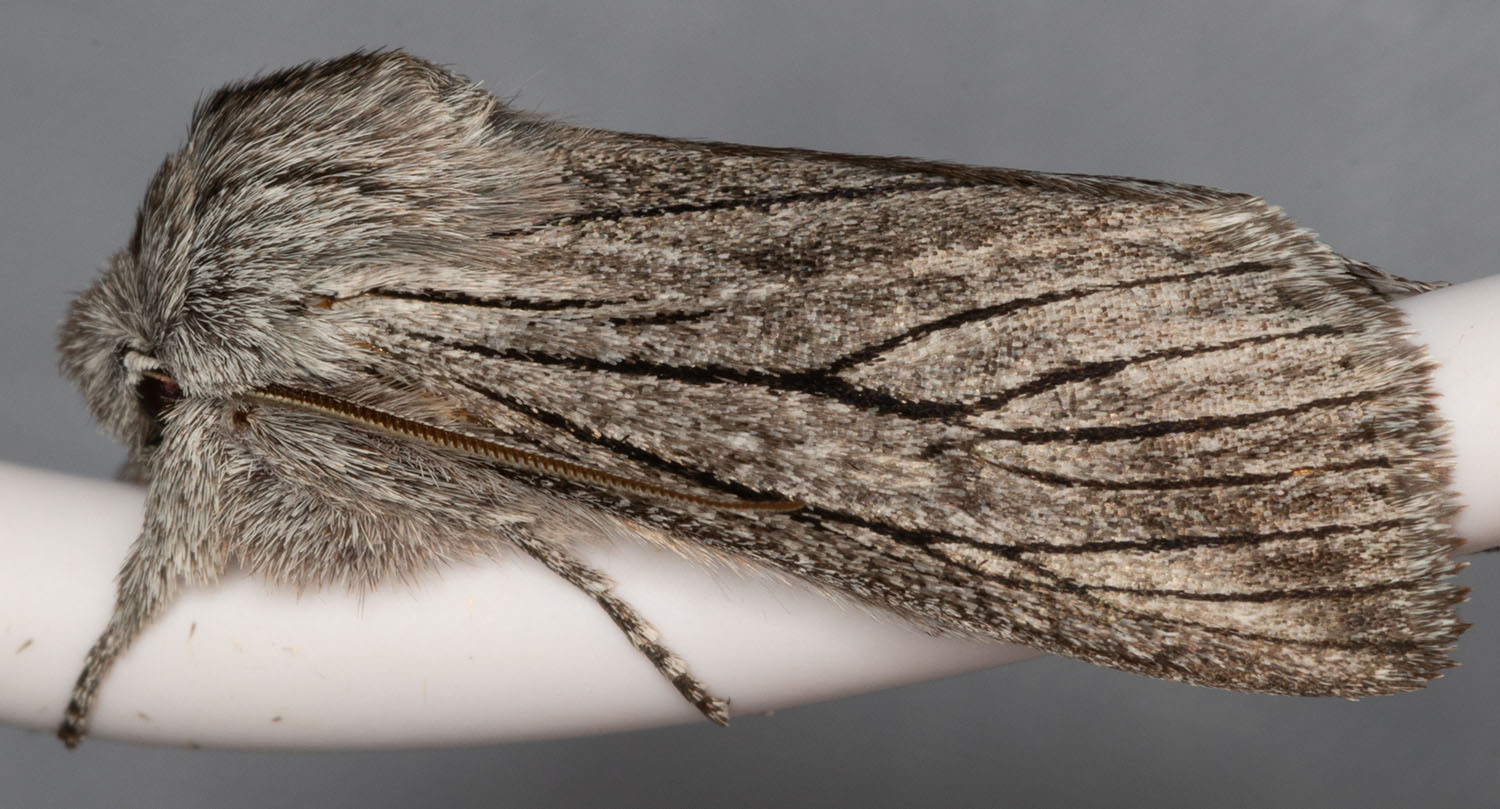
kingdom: Animalia
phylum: Arthropoda
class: Insecta
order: Lepidoptera
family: Noctuidae
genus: Pleromella
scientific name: Pleromella opter
